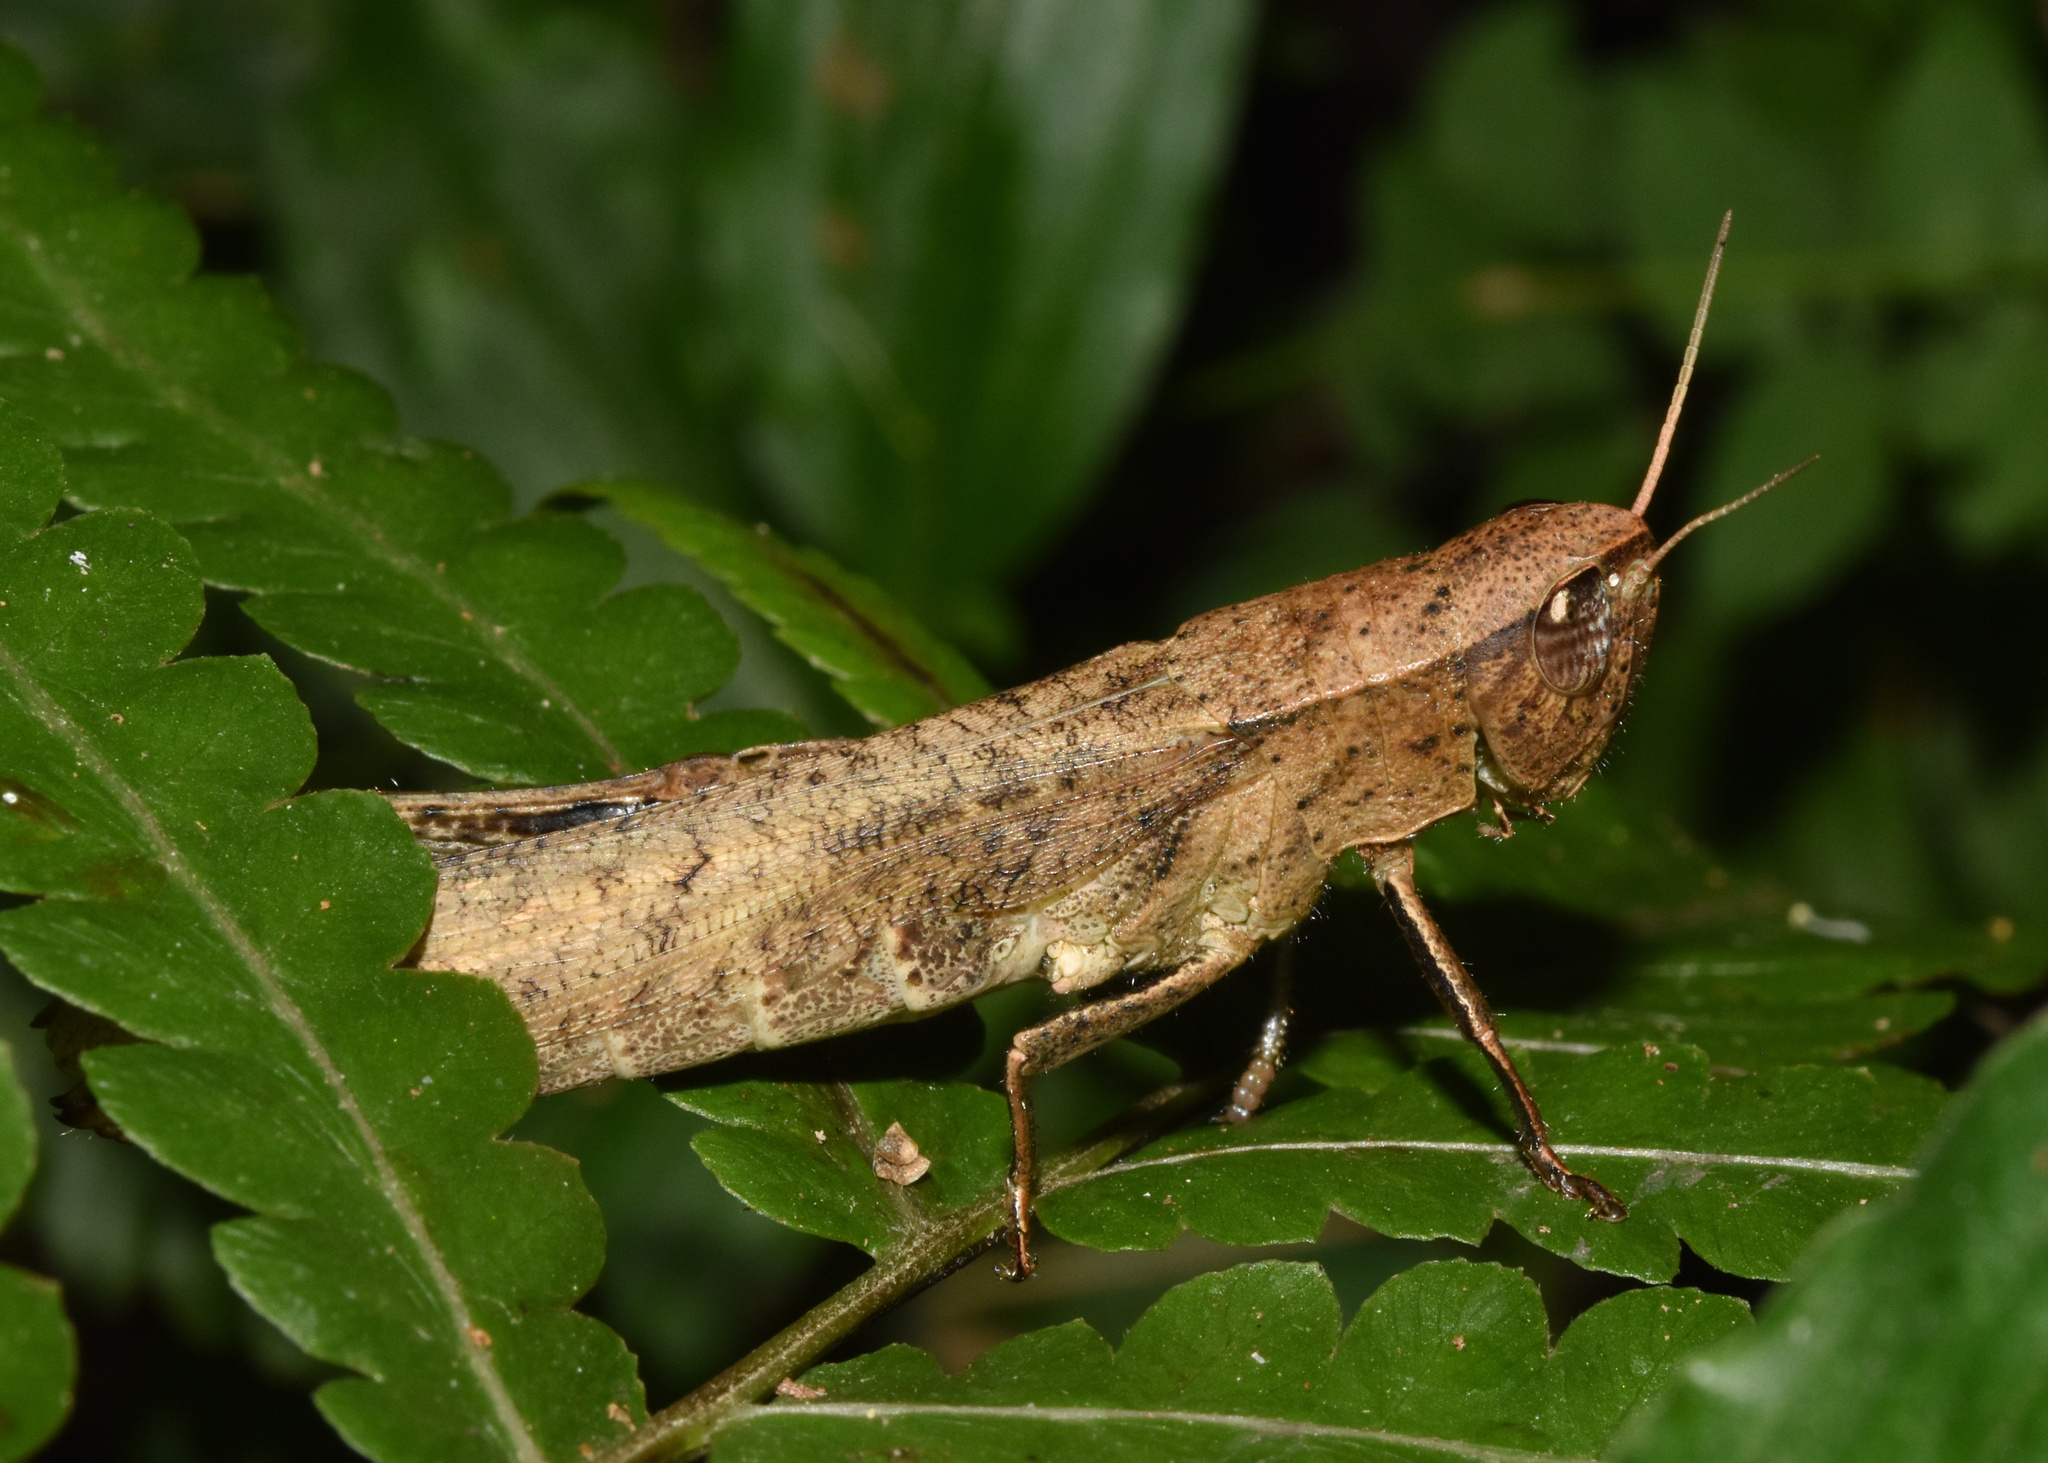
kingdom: Animalia
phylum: Arthropoda
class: Insecta
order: Orthoptera
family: Acrididae
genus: Oraistes
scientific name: Oraistes luridus
